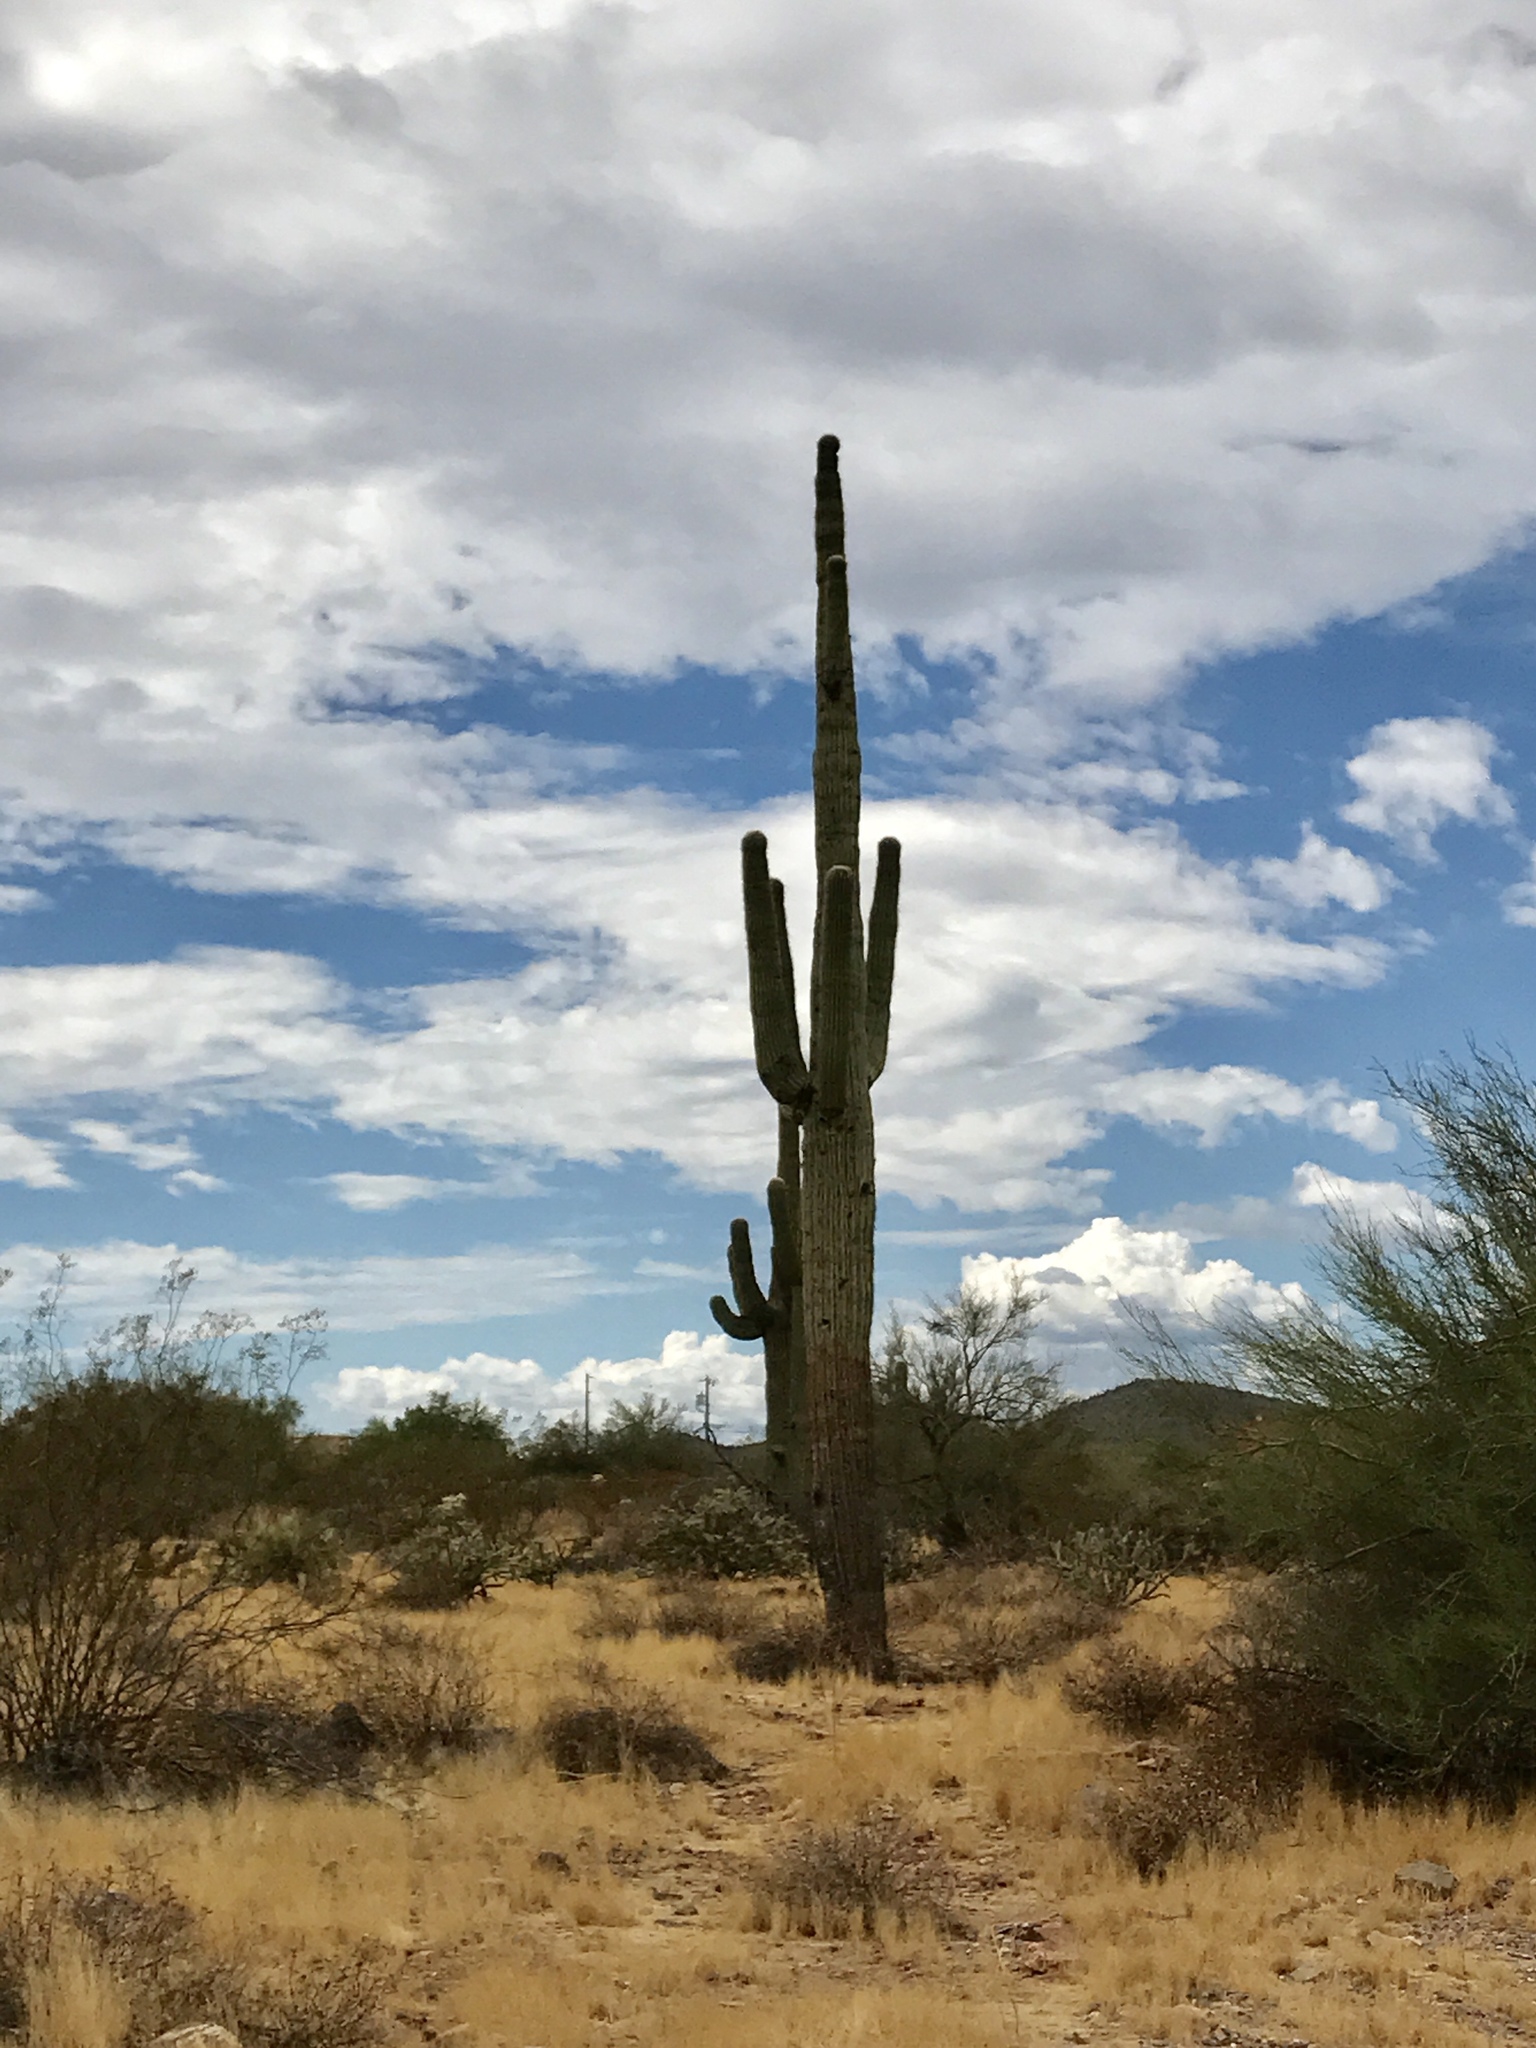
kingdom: Plantae
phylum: Tracheophyta
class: Magnoliopsida
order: Caryophyllales
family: Cactaceae
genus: Carnegiea
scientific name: Carnegiea gigantea
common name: Saguaro
